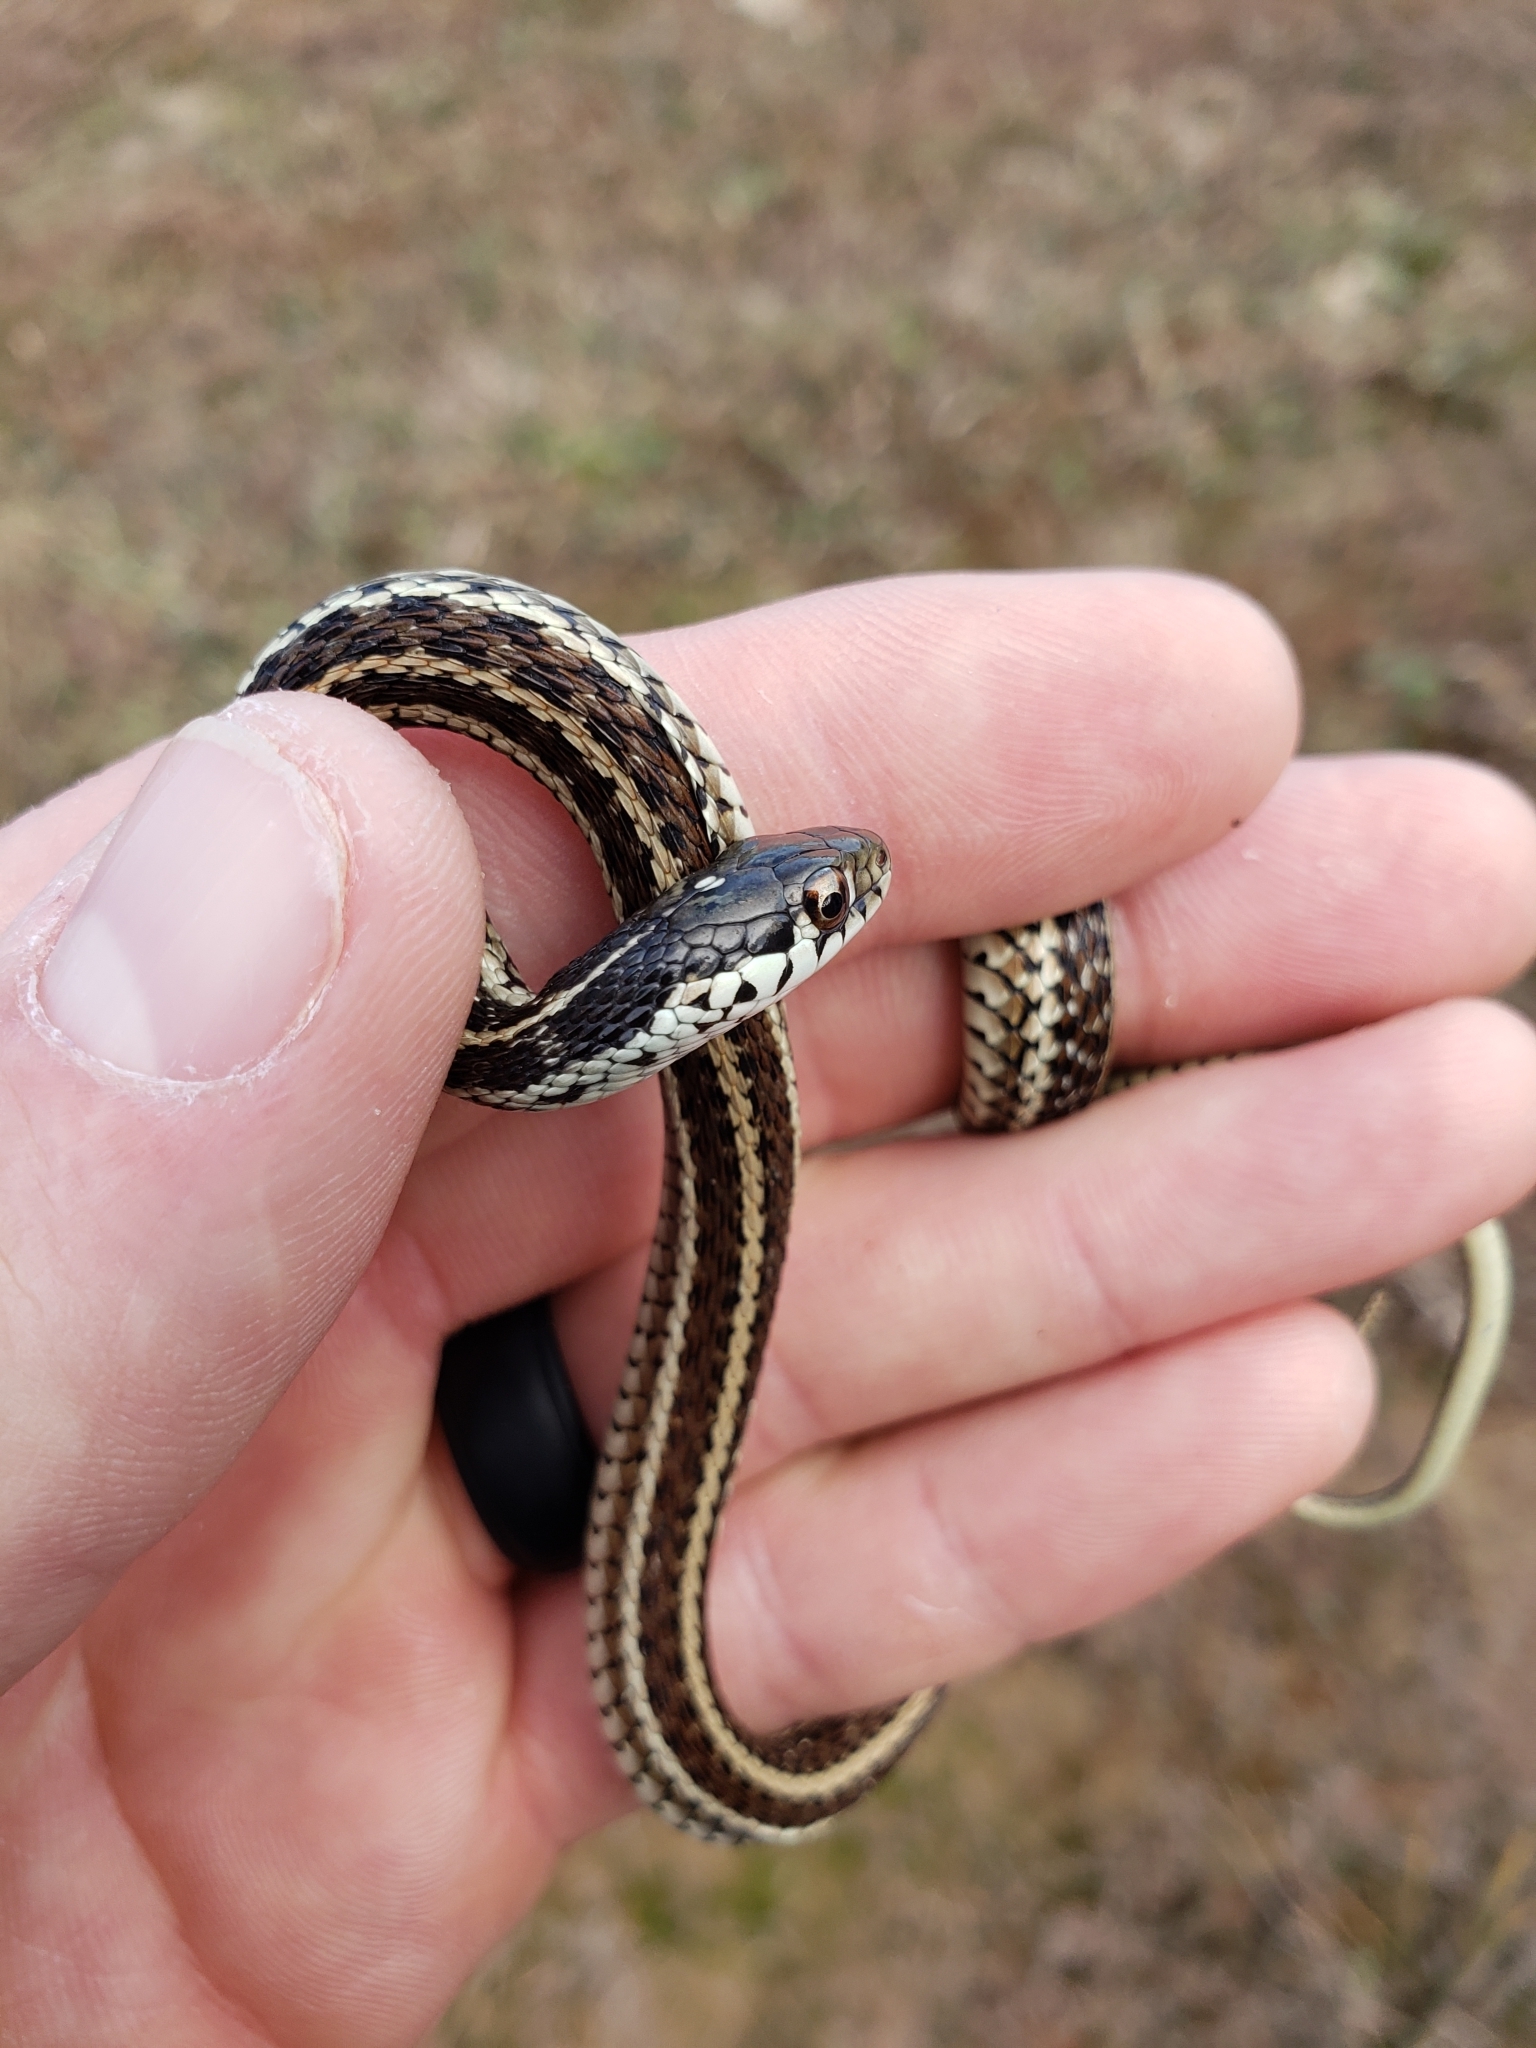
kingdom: Animalia
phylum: Chordata
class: Squamata
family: Colubridae
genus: Thamnophis
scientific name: Thamnophis sirtalis
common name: Common garter snake
